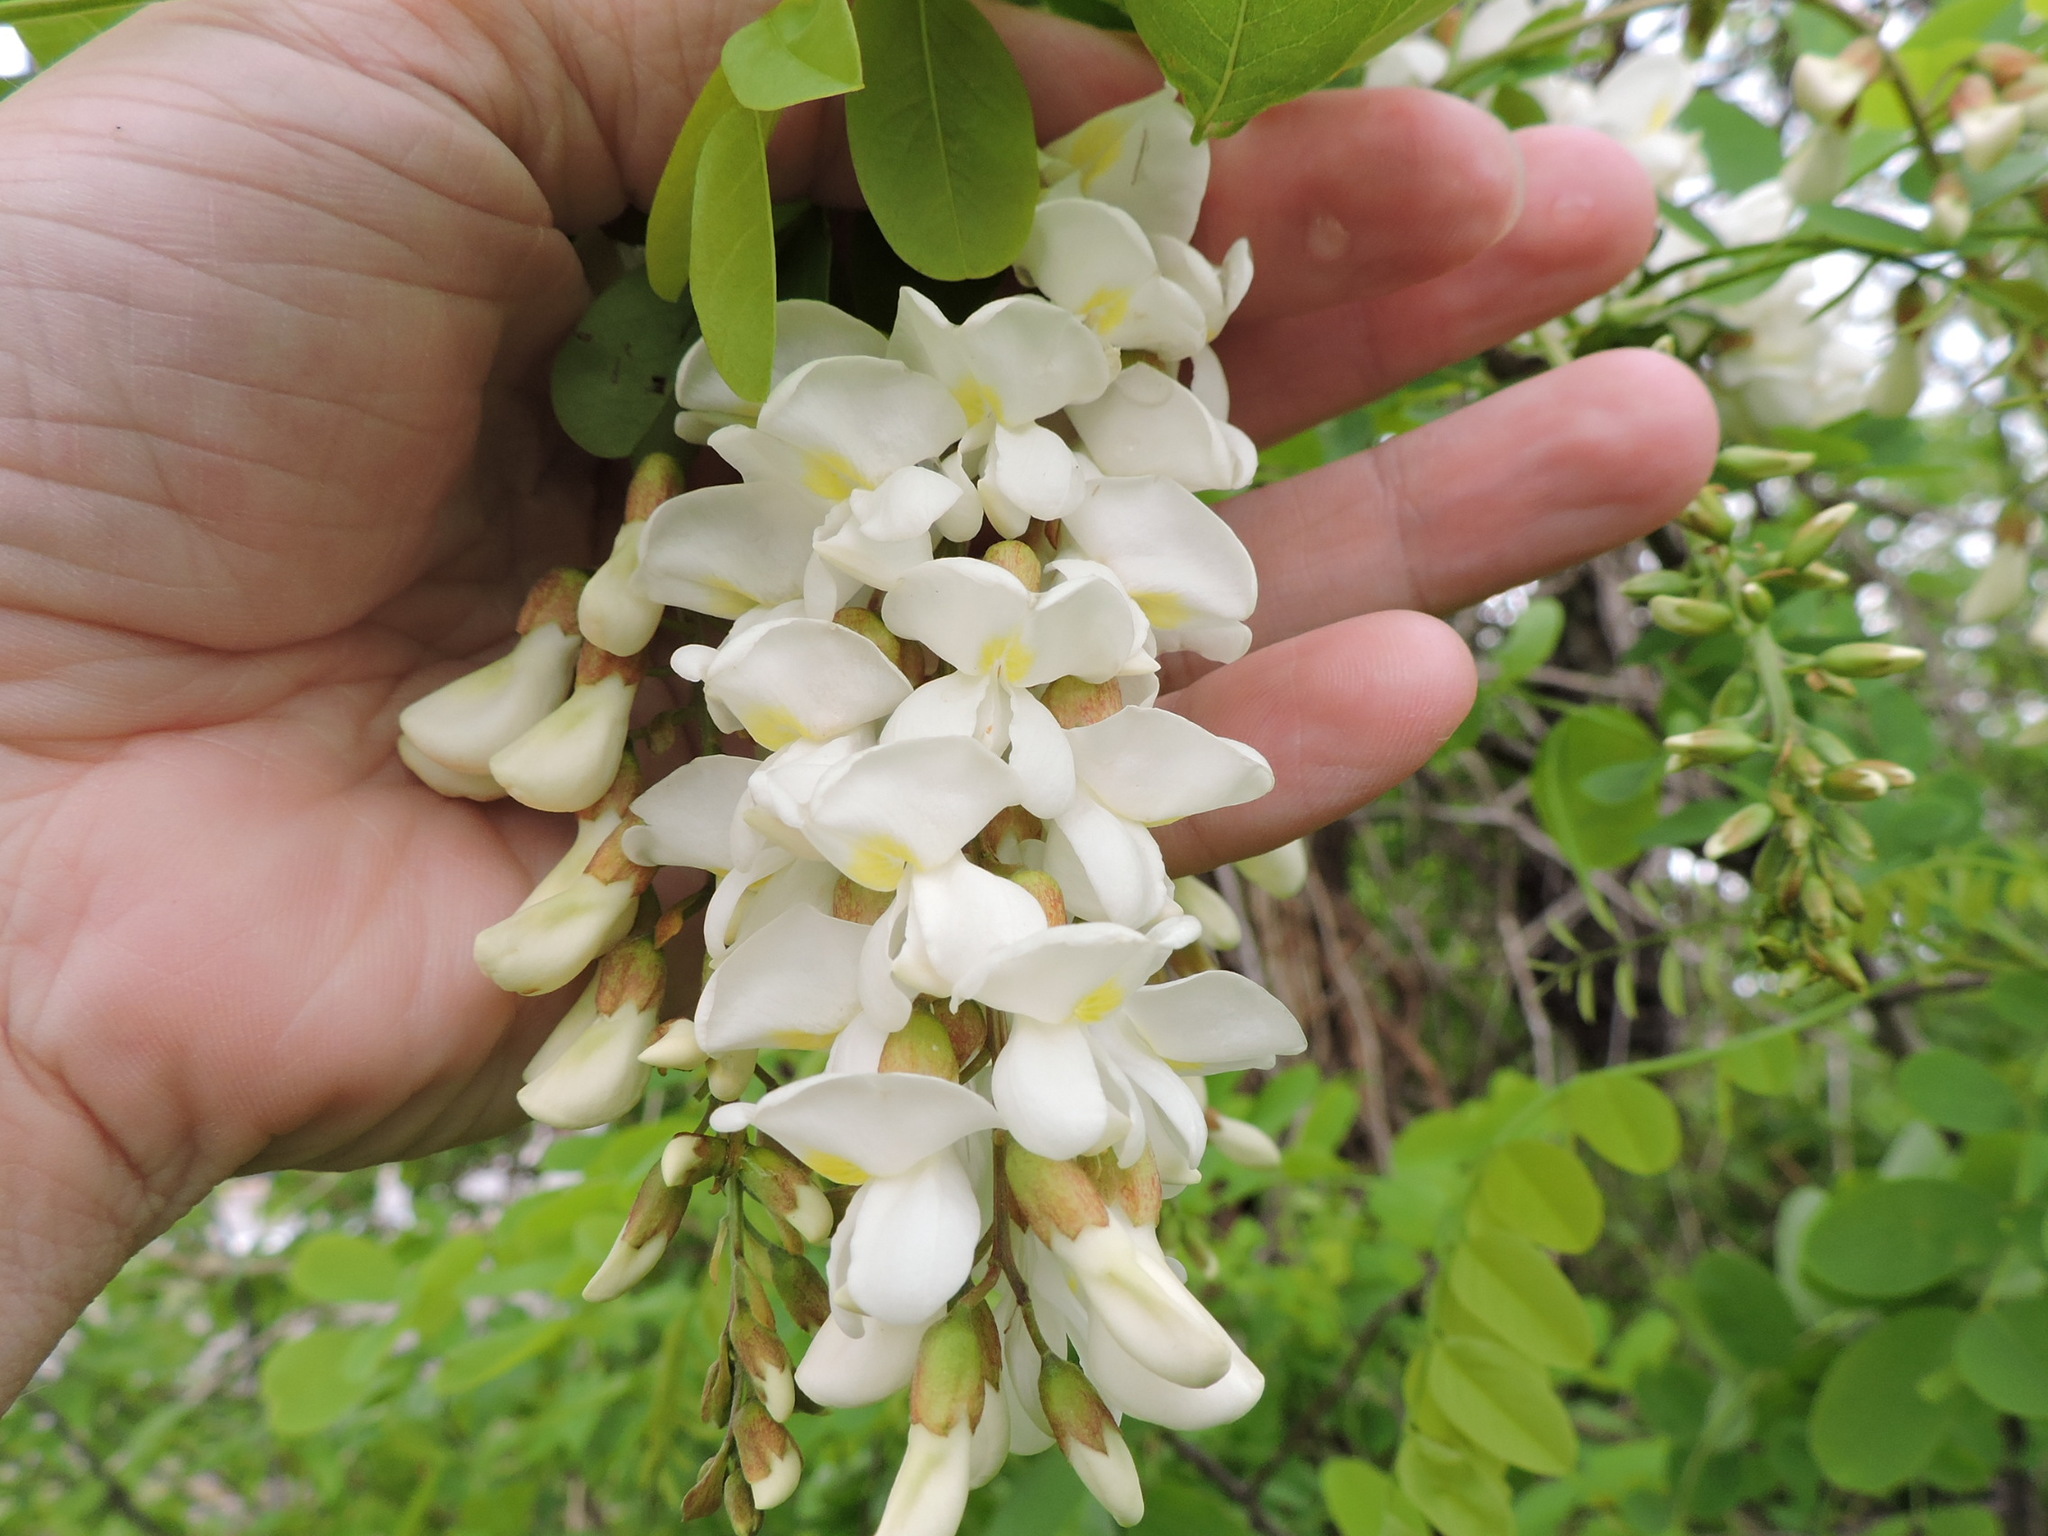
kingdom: Plantae
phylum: Tracheophyta
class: Magnoliopsida
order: Fabales
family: Fabaceae
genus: Robinia
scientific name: Robinia pseudoacacia
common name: Black locust
